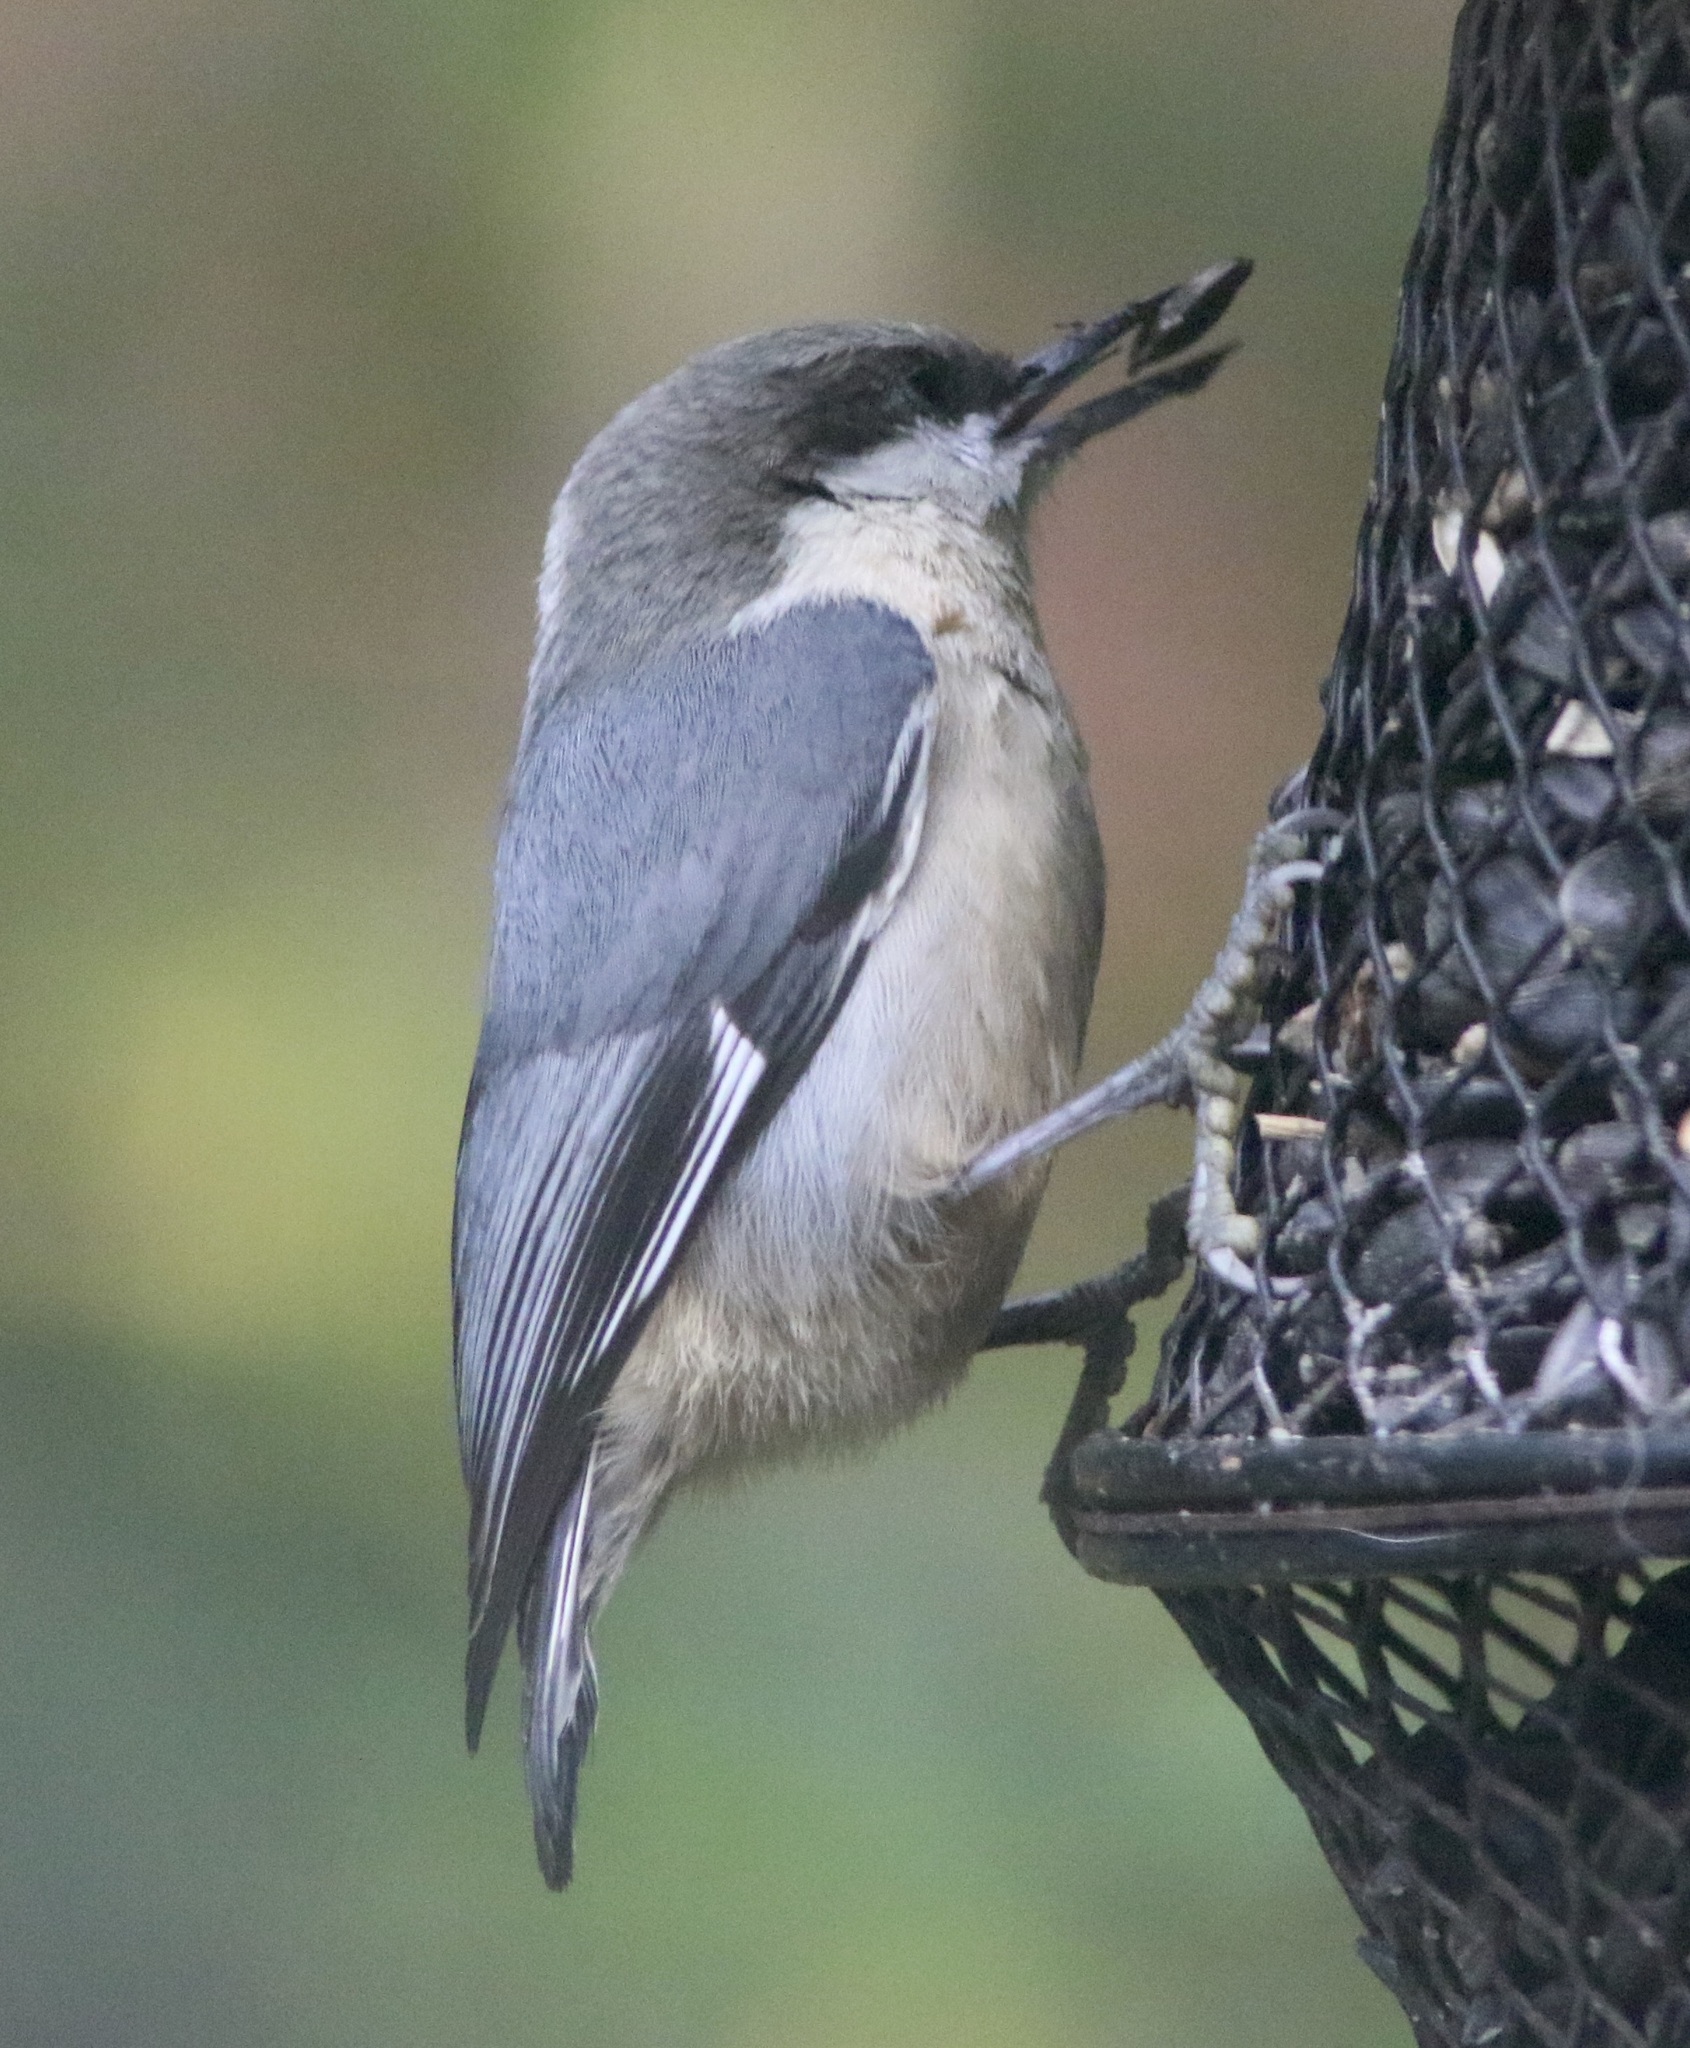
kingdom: Animalia
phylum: Chordata
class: Aves
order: Passeriformes
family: Sittidae
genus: Sitta
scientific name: Sitta pygmaea
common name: Pygmy nuthatch
